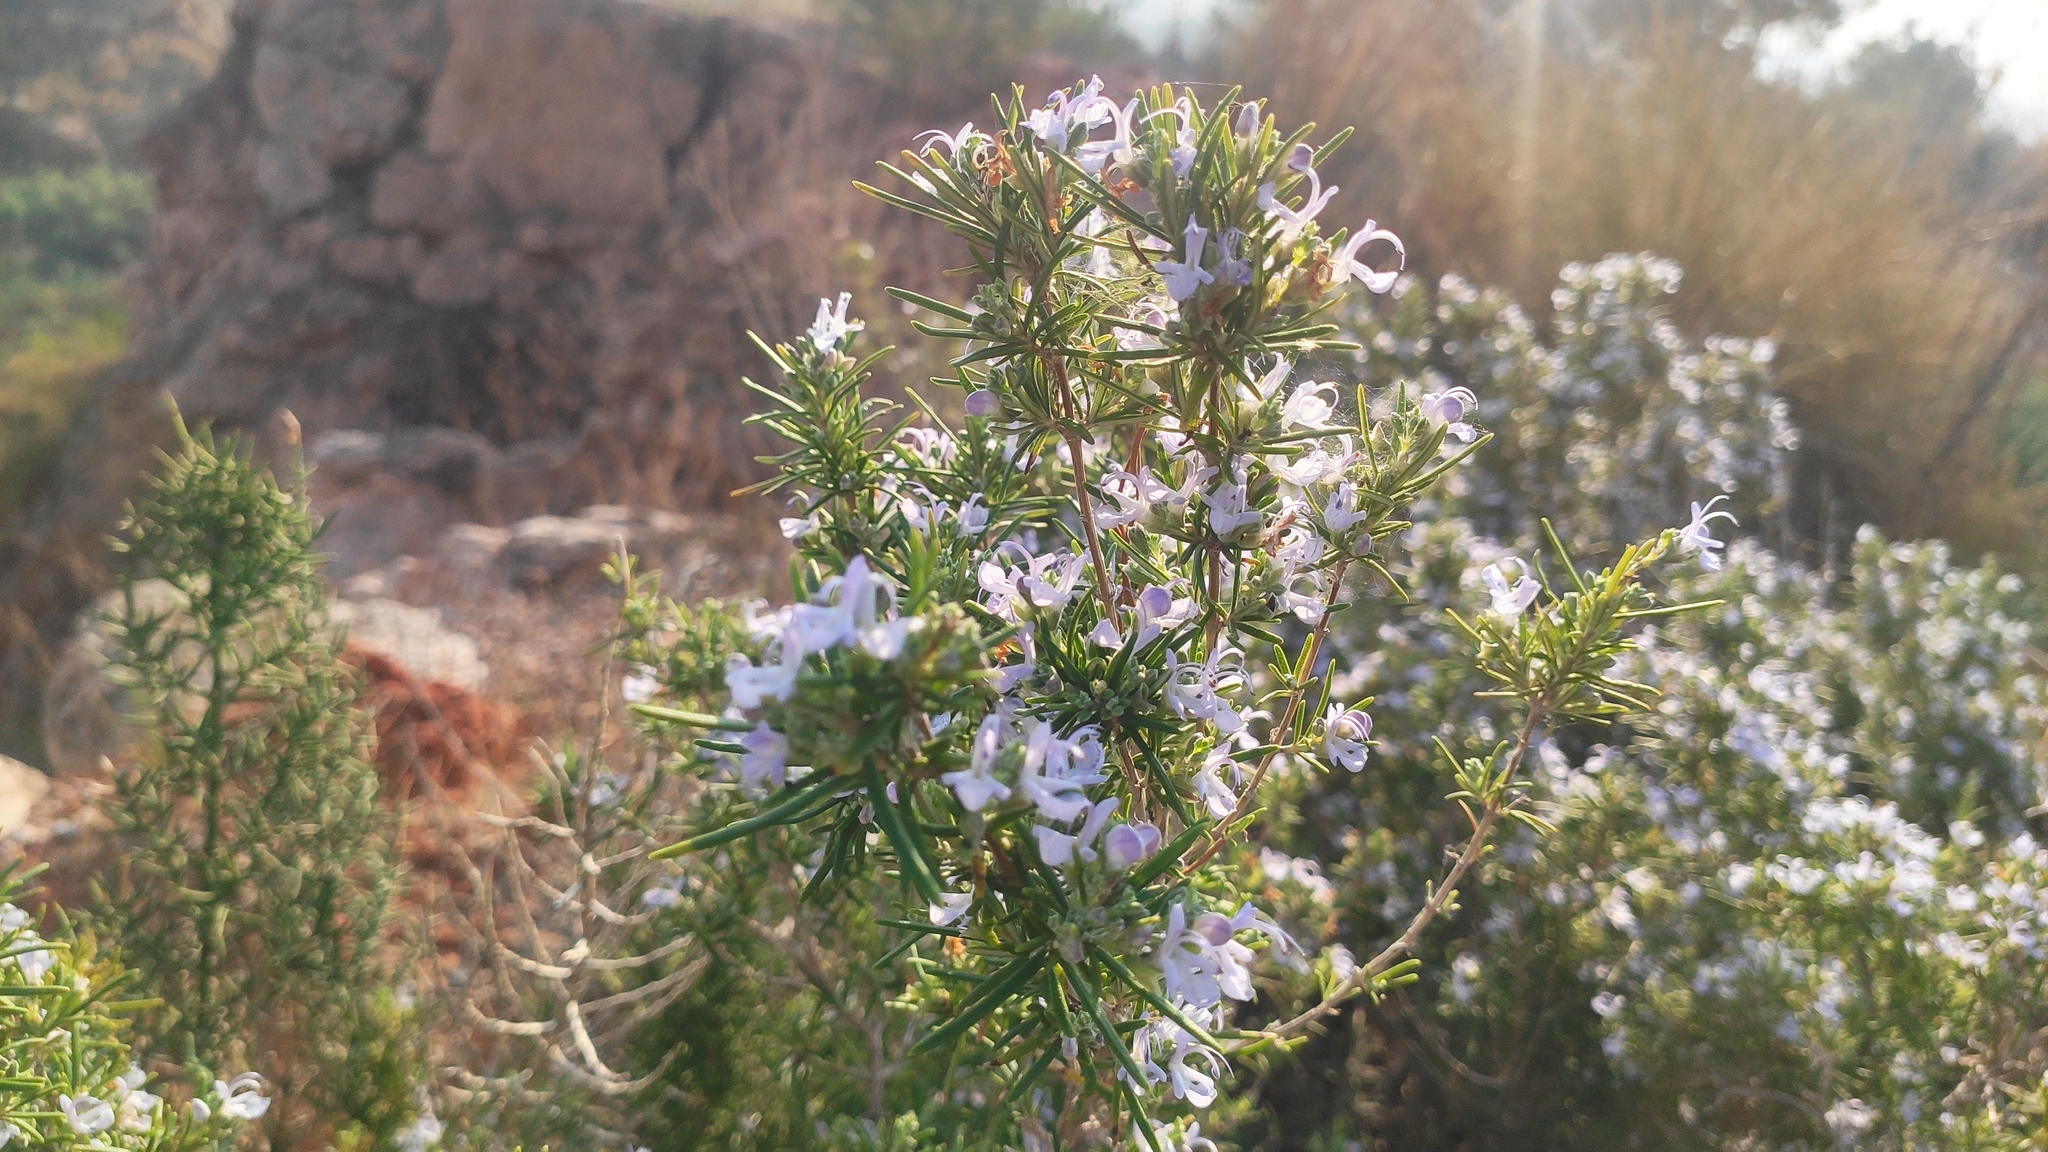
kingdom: Plantae
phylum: Tracheophyta
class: Magnoliopsida
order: Lamiales
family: Lamiaceae
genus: Salvia
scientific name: Salvia rosmarinus
